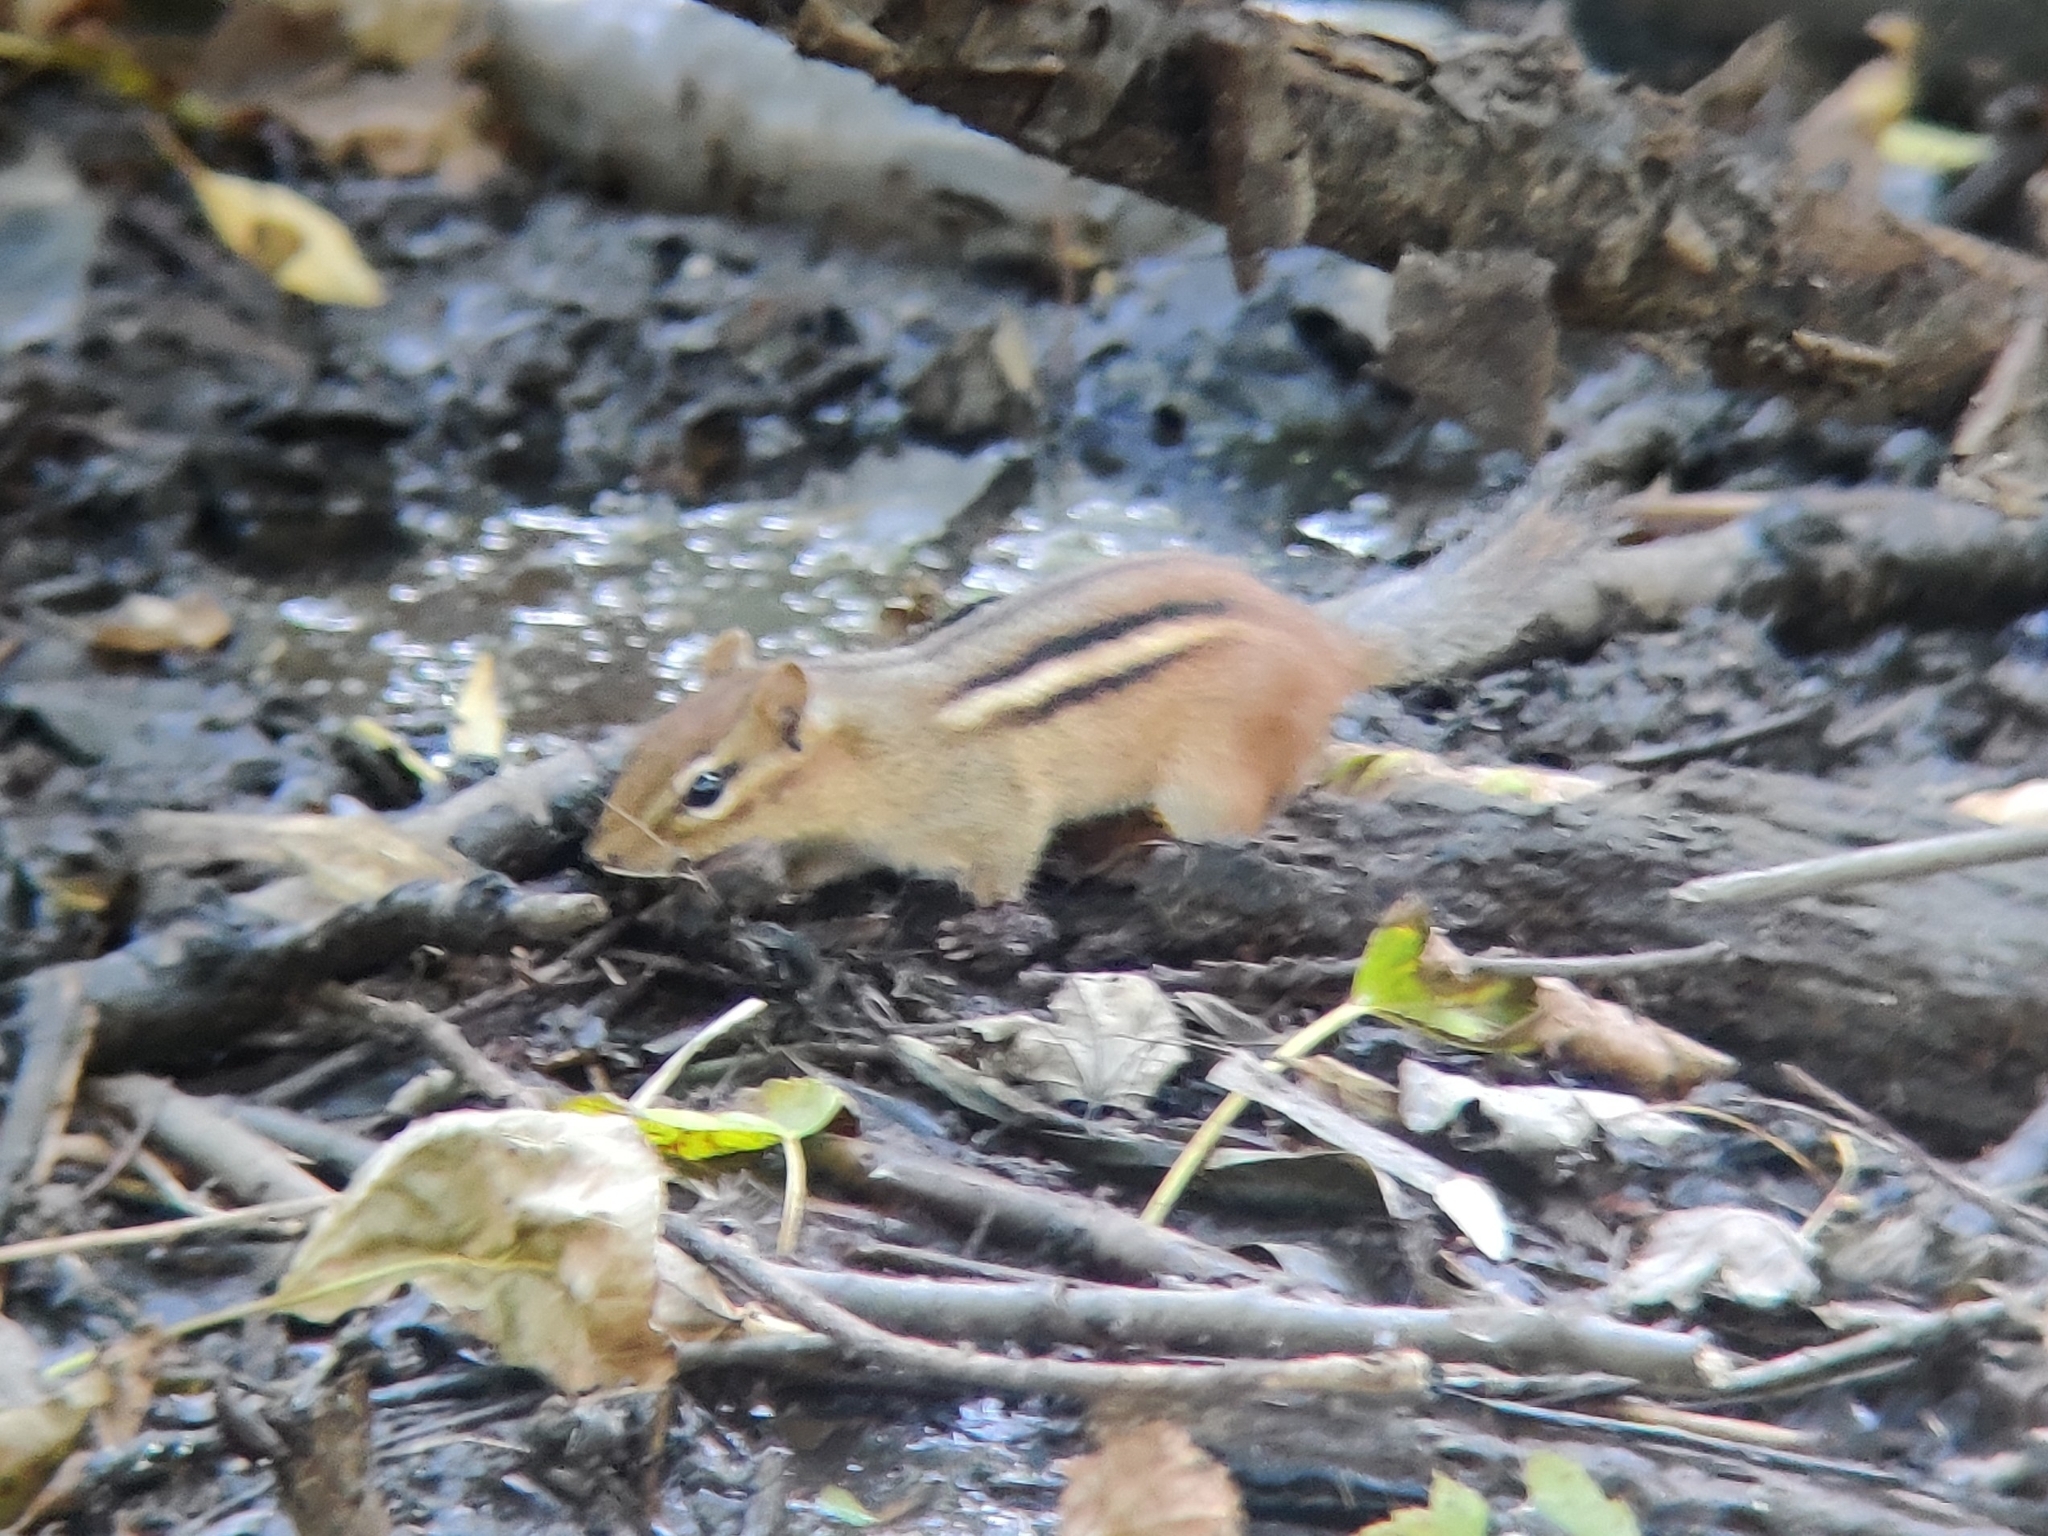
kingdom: Animalia
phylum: Chordata
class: Mammalia
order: Rodentia
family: Sciuridae
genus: Tamias
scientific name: Tamias striatus
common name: Eastern chipmunk
